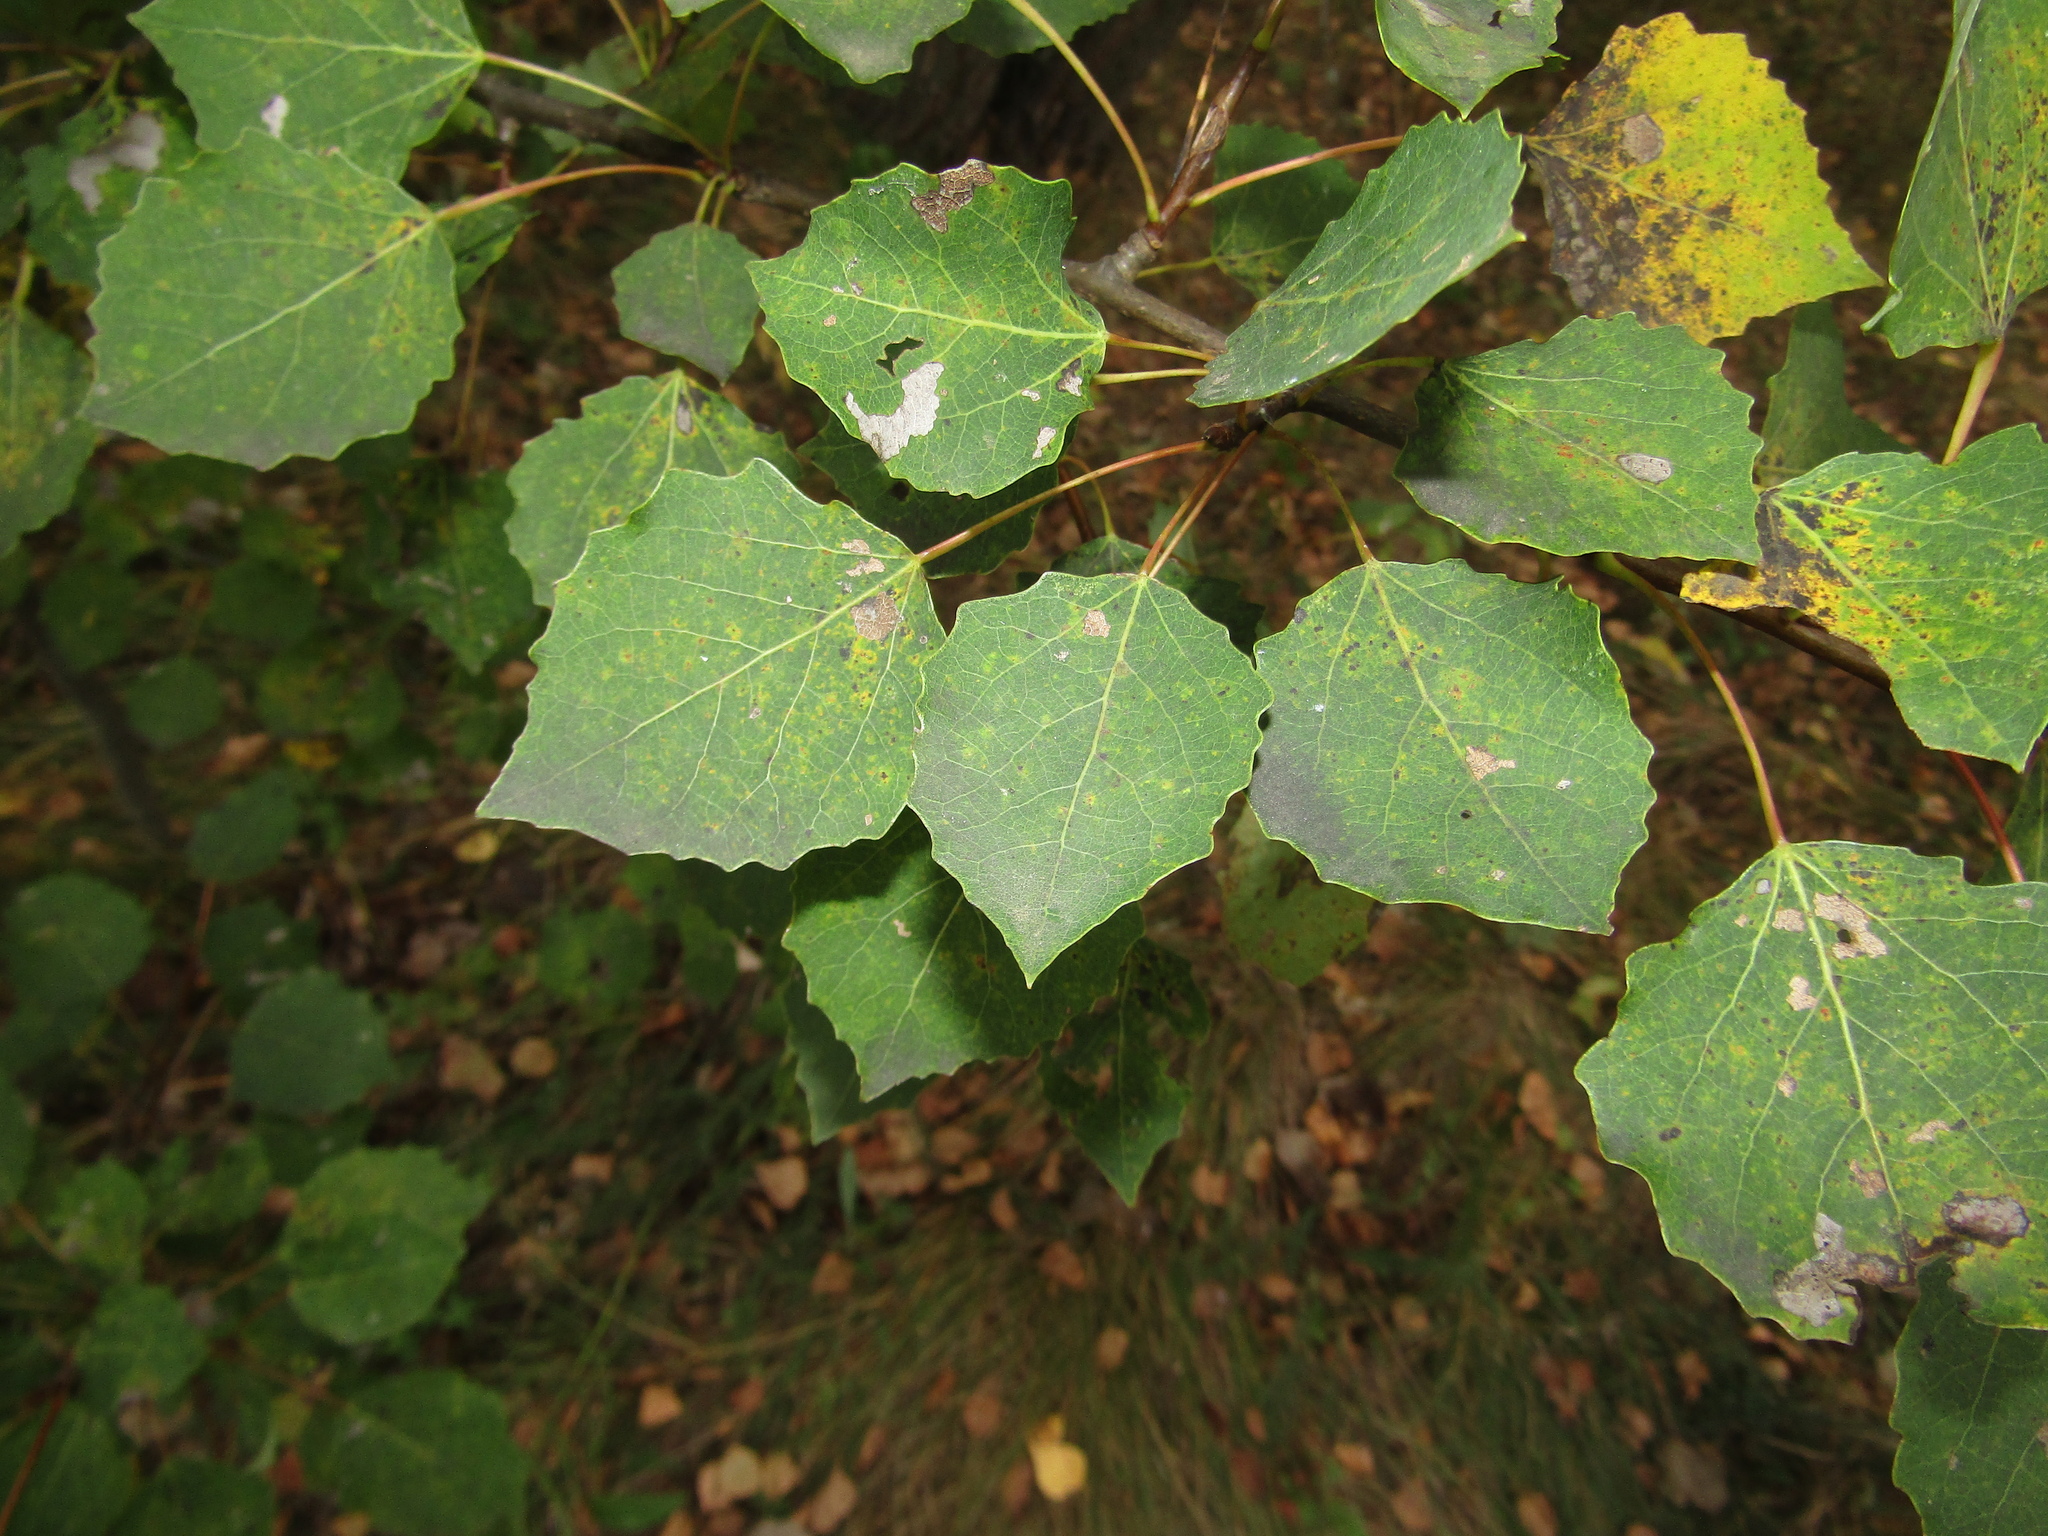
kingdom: Plantae
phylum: Tracheophyta
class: Magnoliopsida
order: Malpighiales
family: Salicaceae
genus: Populus
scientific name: Populus tremula
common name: European aspen
